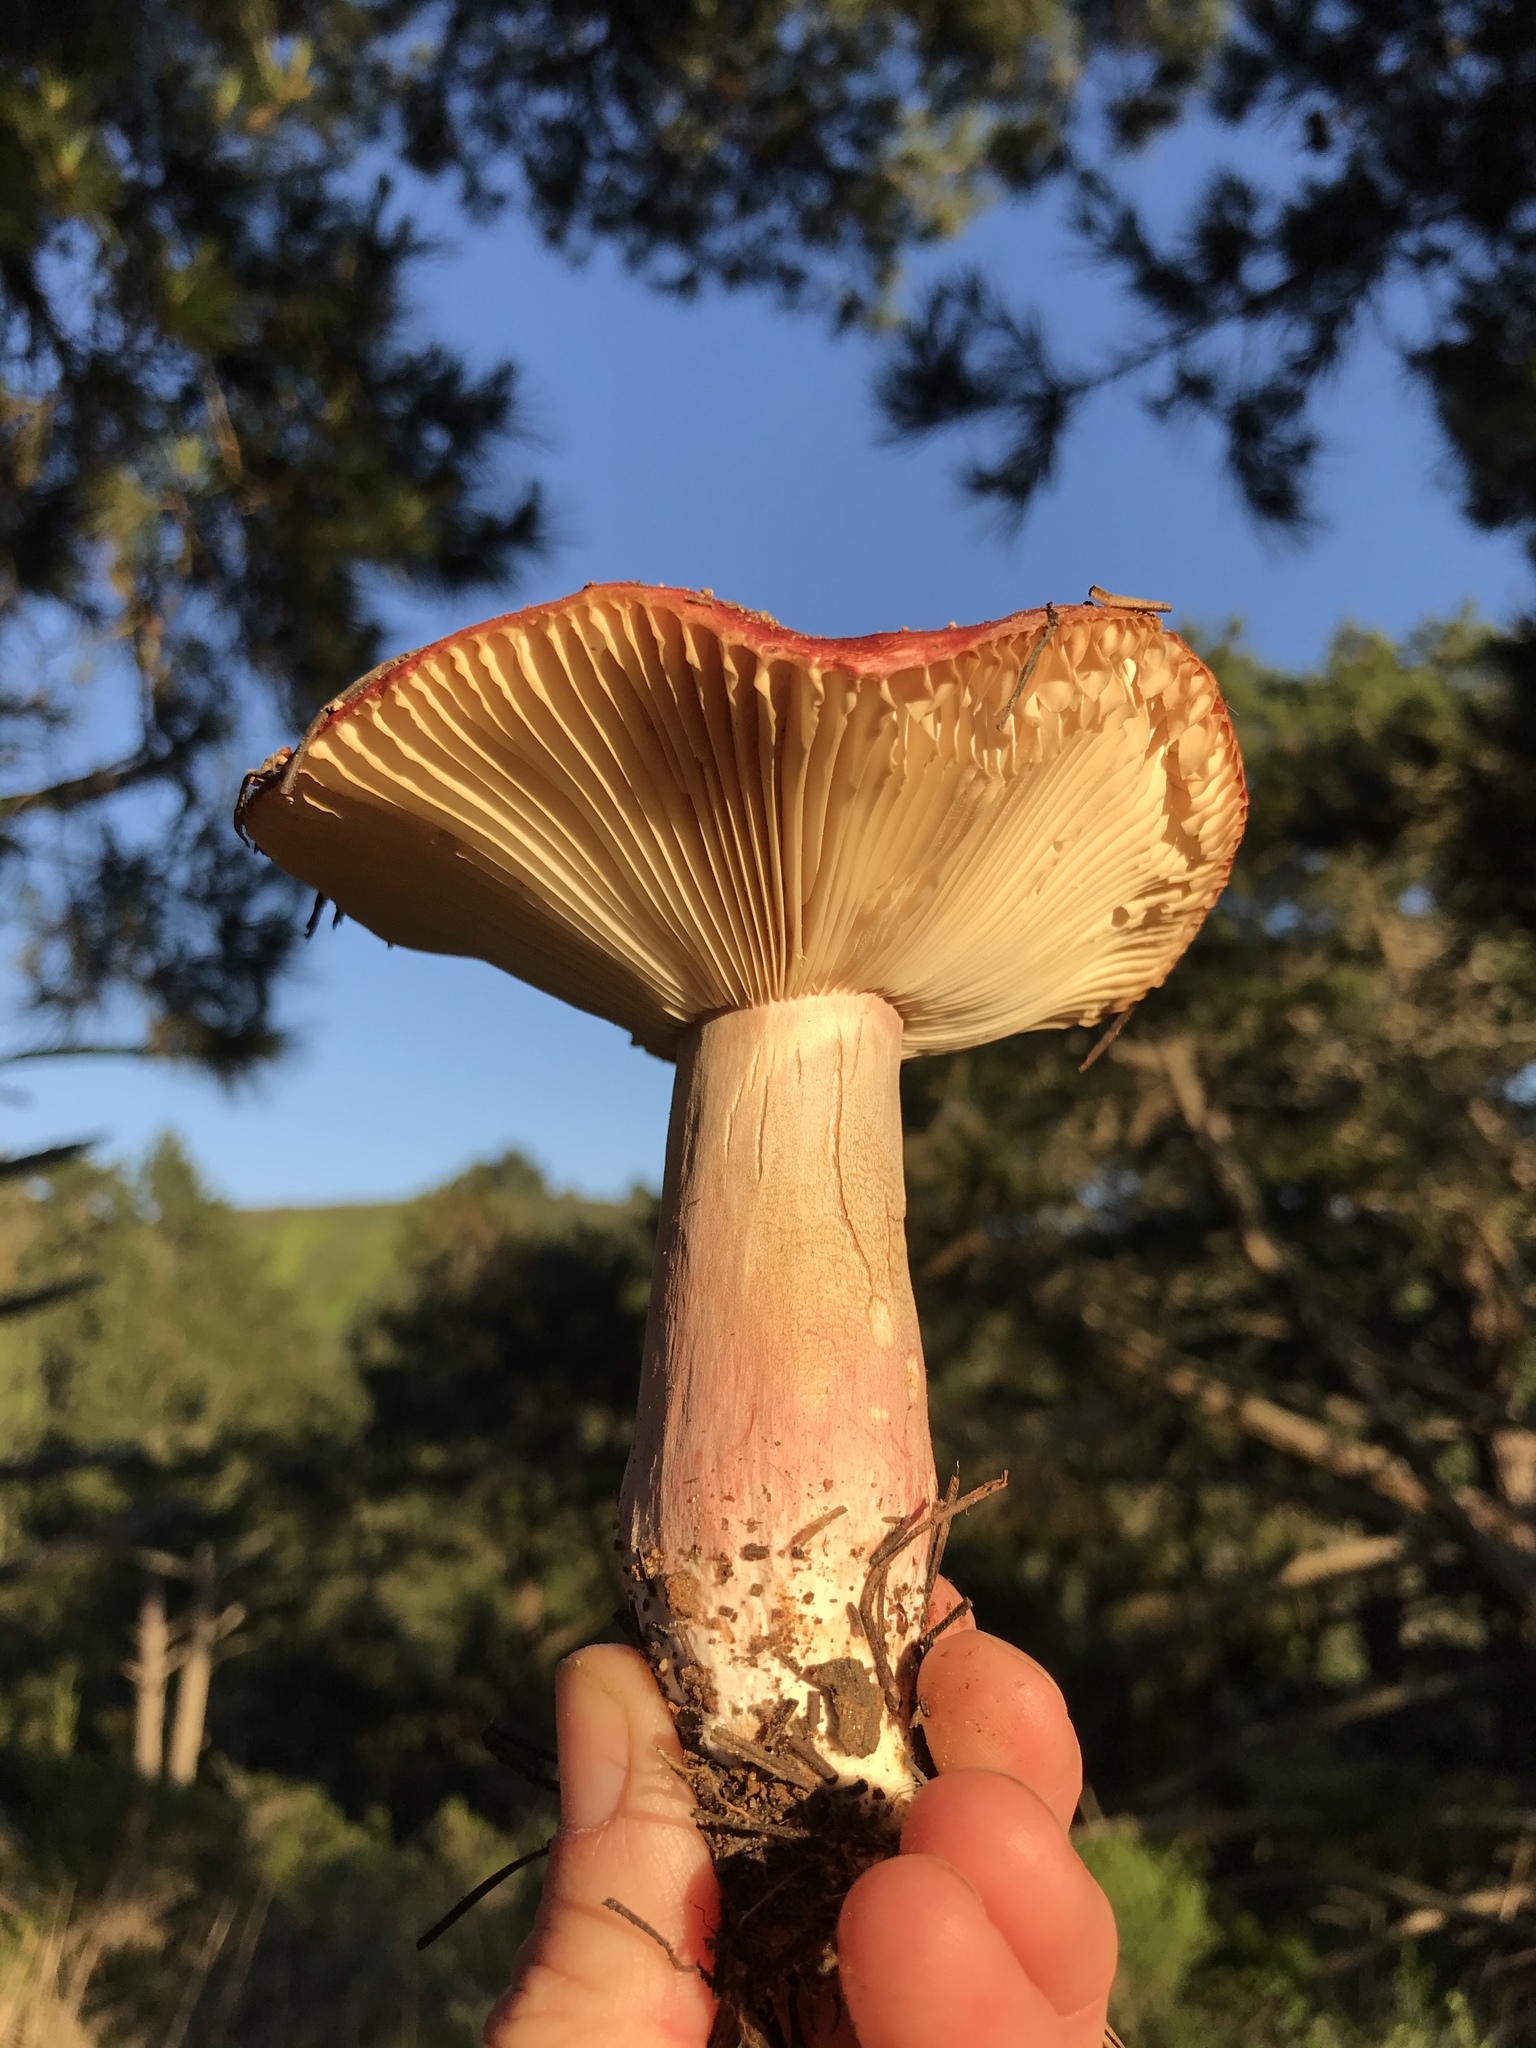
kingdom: Fungi
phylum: Basidiomycota
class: Agaricomycetes
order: Russulales
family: Russulaceae
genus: Russula
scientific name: Russula rhodocephala
